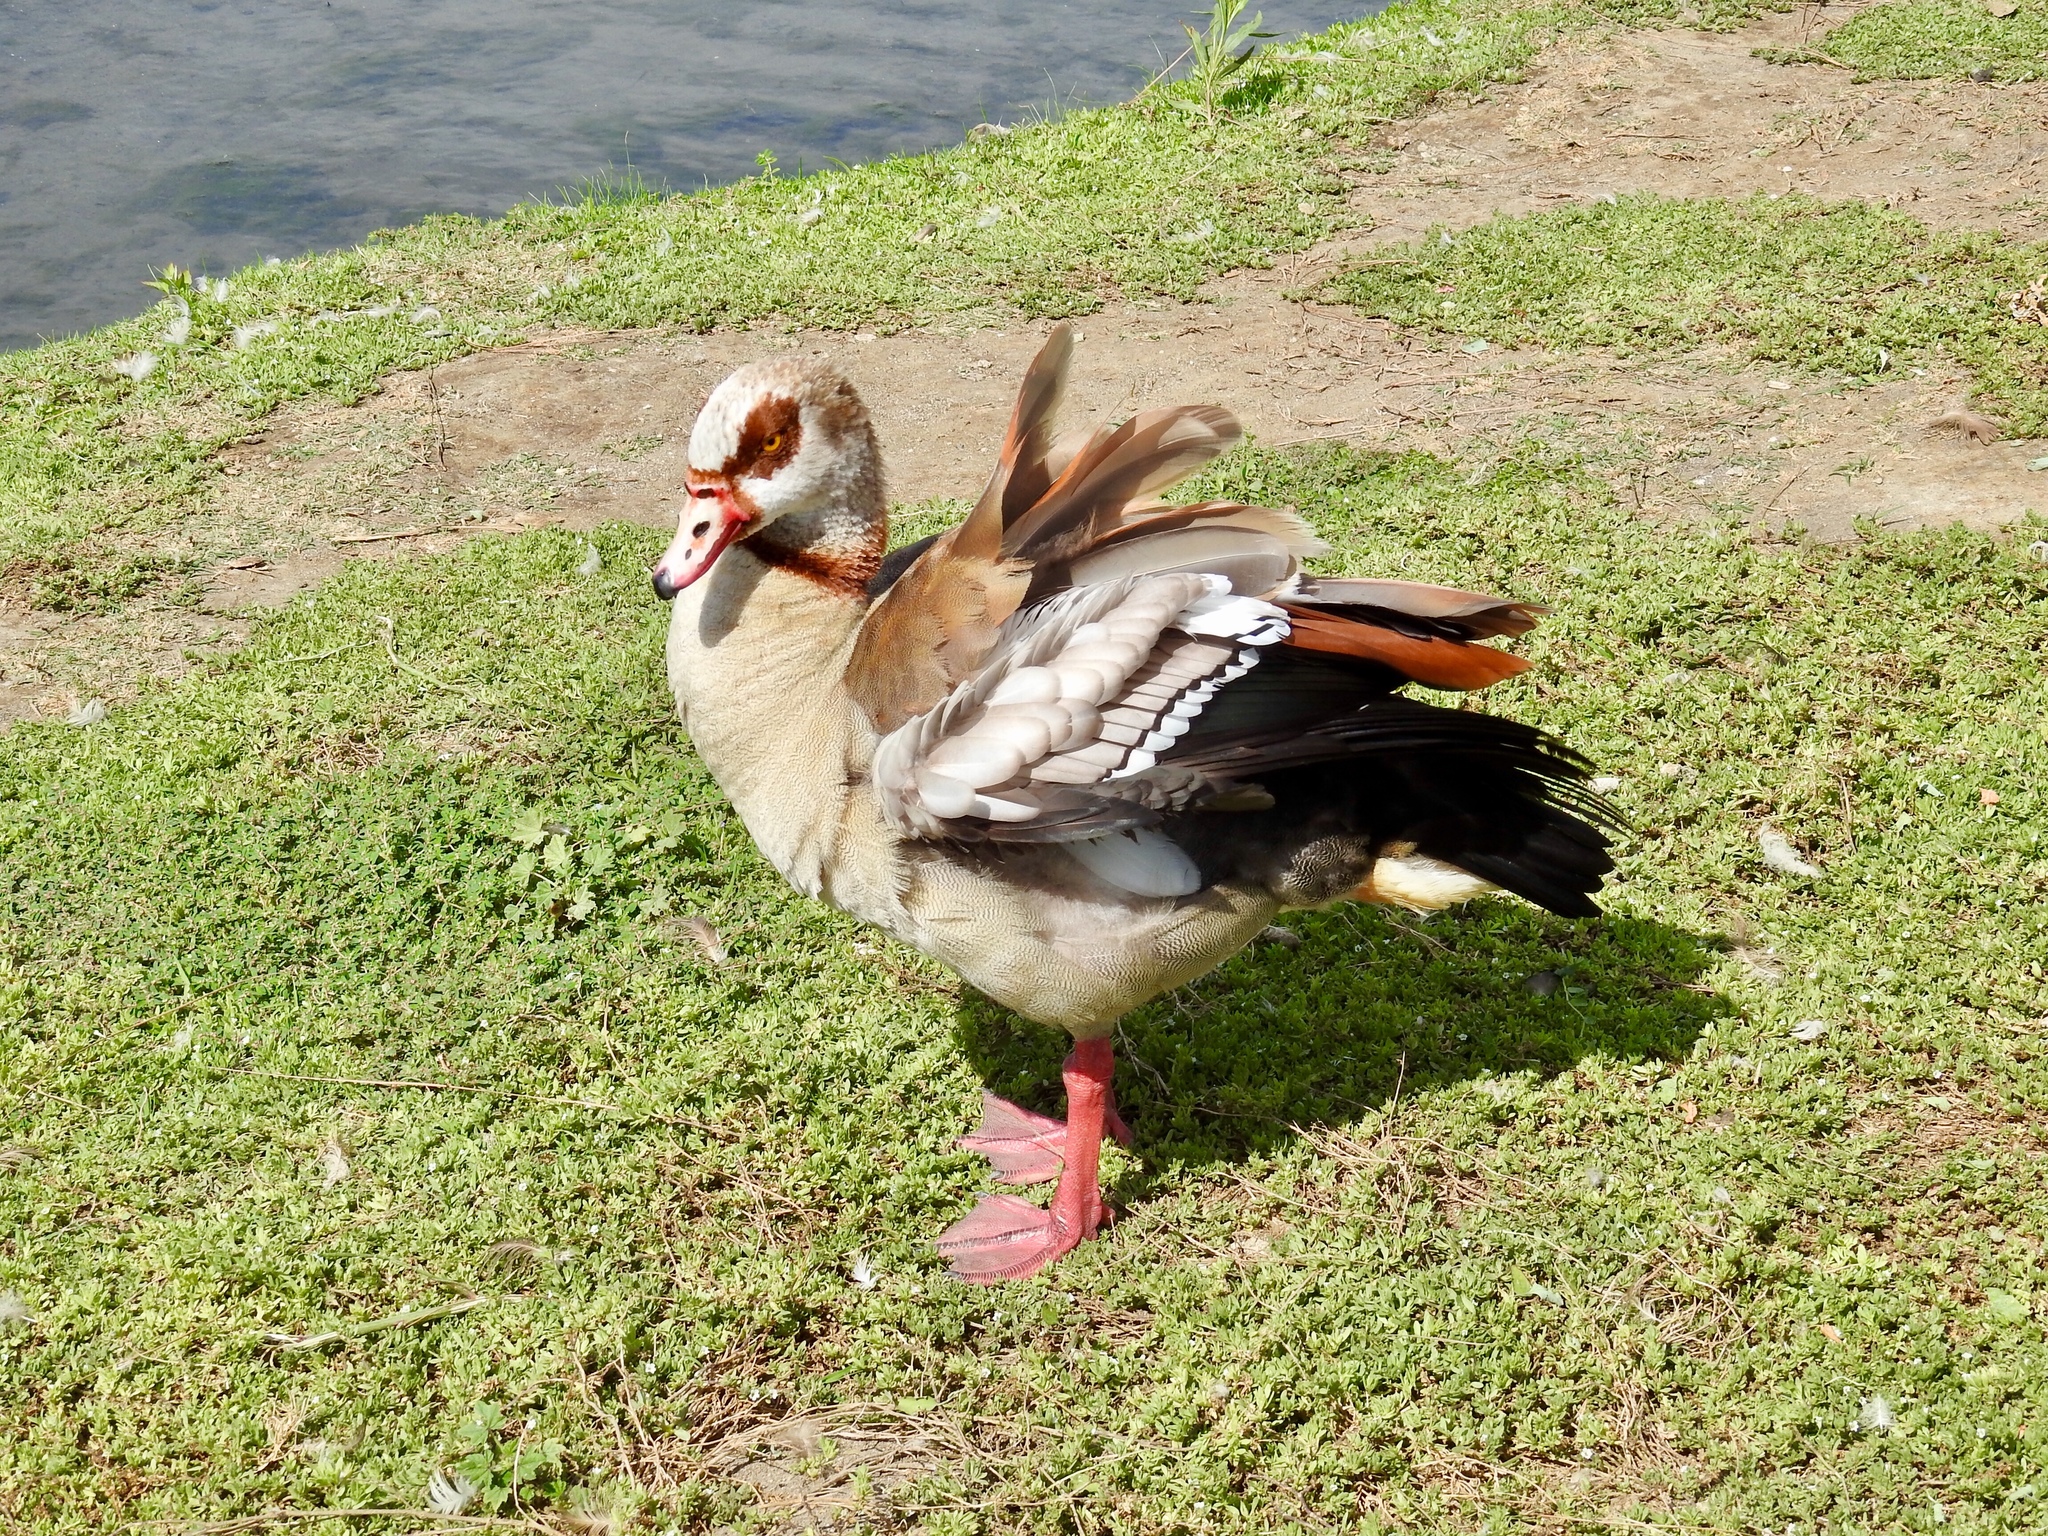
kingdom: Animalia
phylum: Chordata
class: Aves
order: Anseriformes
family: Anatidae
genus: Alopochen
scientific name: Alopochen aegyptiaca
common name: Egyptian goose
